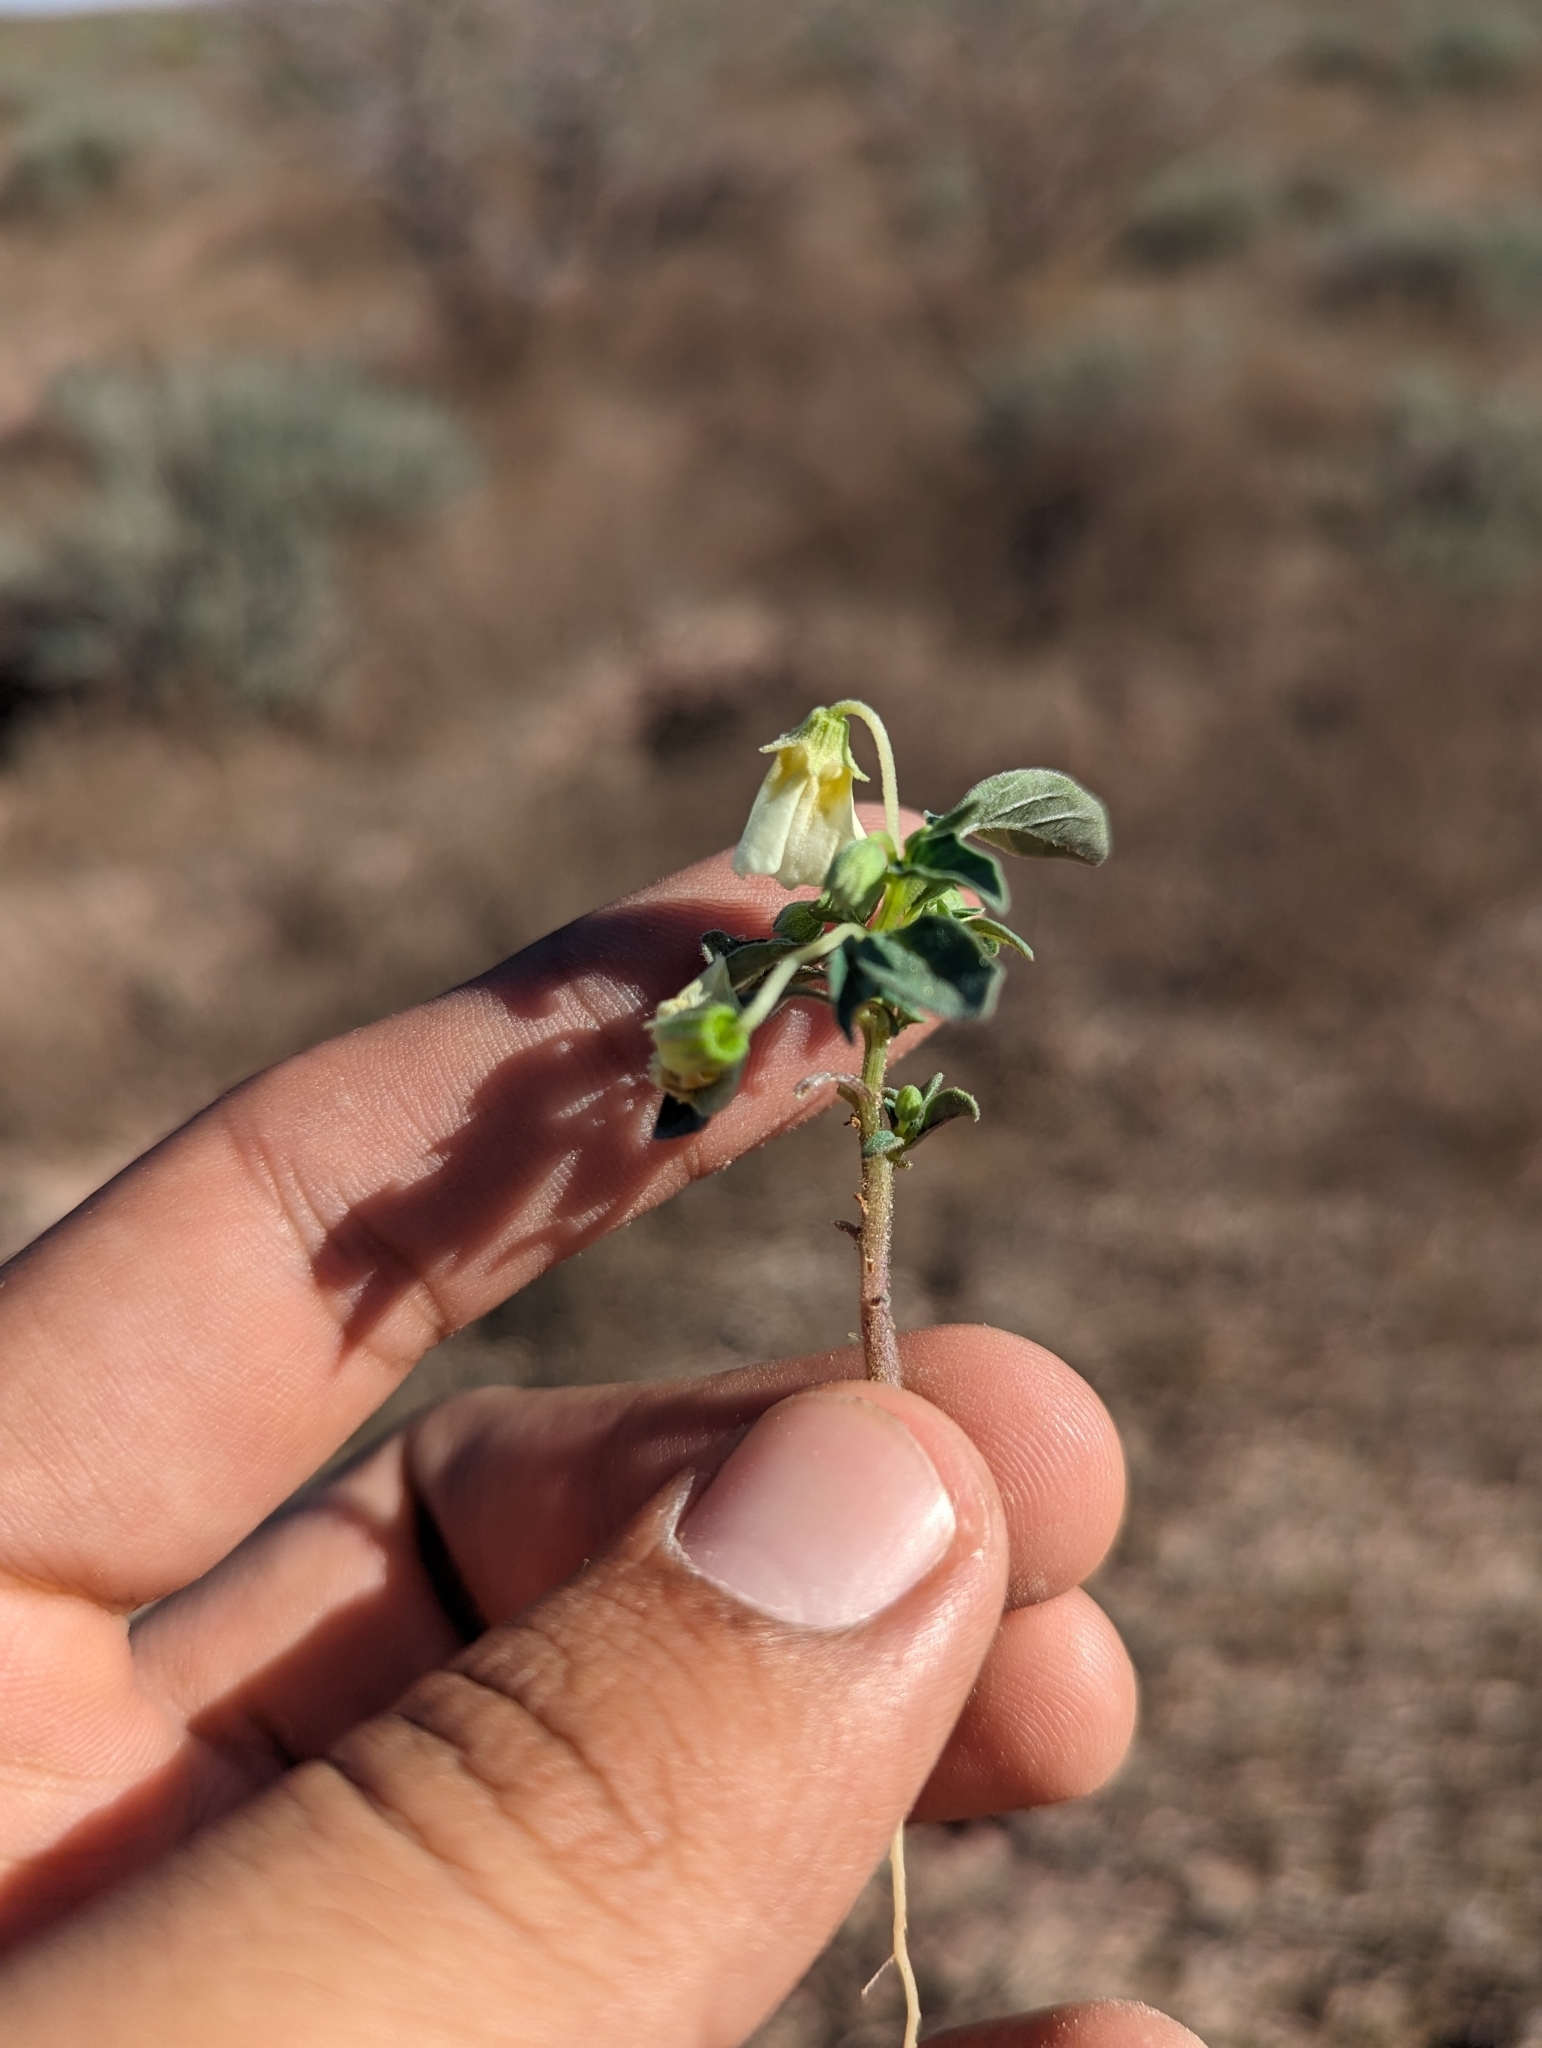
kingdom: Plantae
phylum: Tracheophyta
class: Magnoliopsida
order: Solanales
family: Solanaceae
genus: Physalis
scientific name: Physalis acutifolia
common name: Wright's ground-cherry
